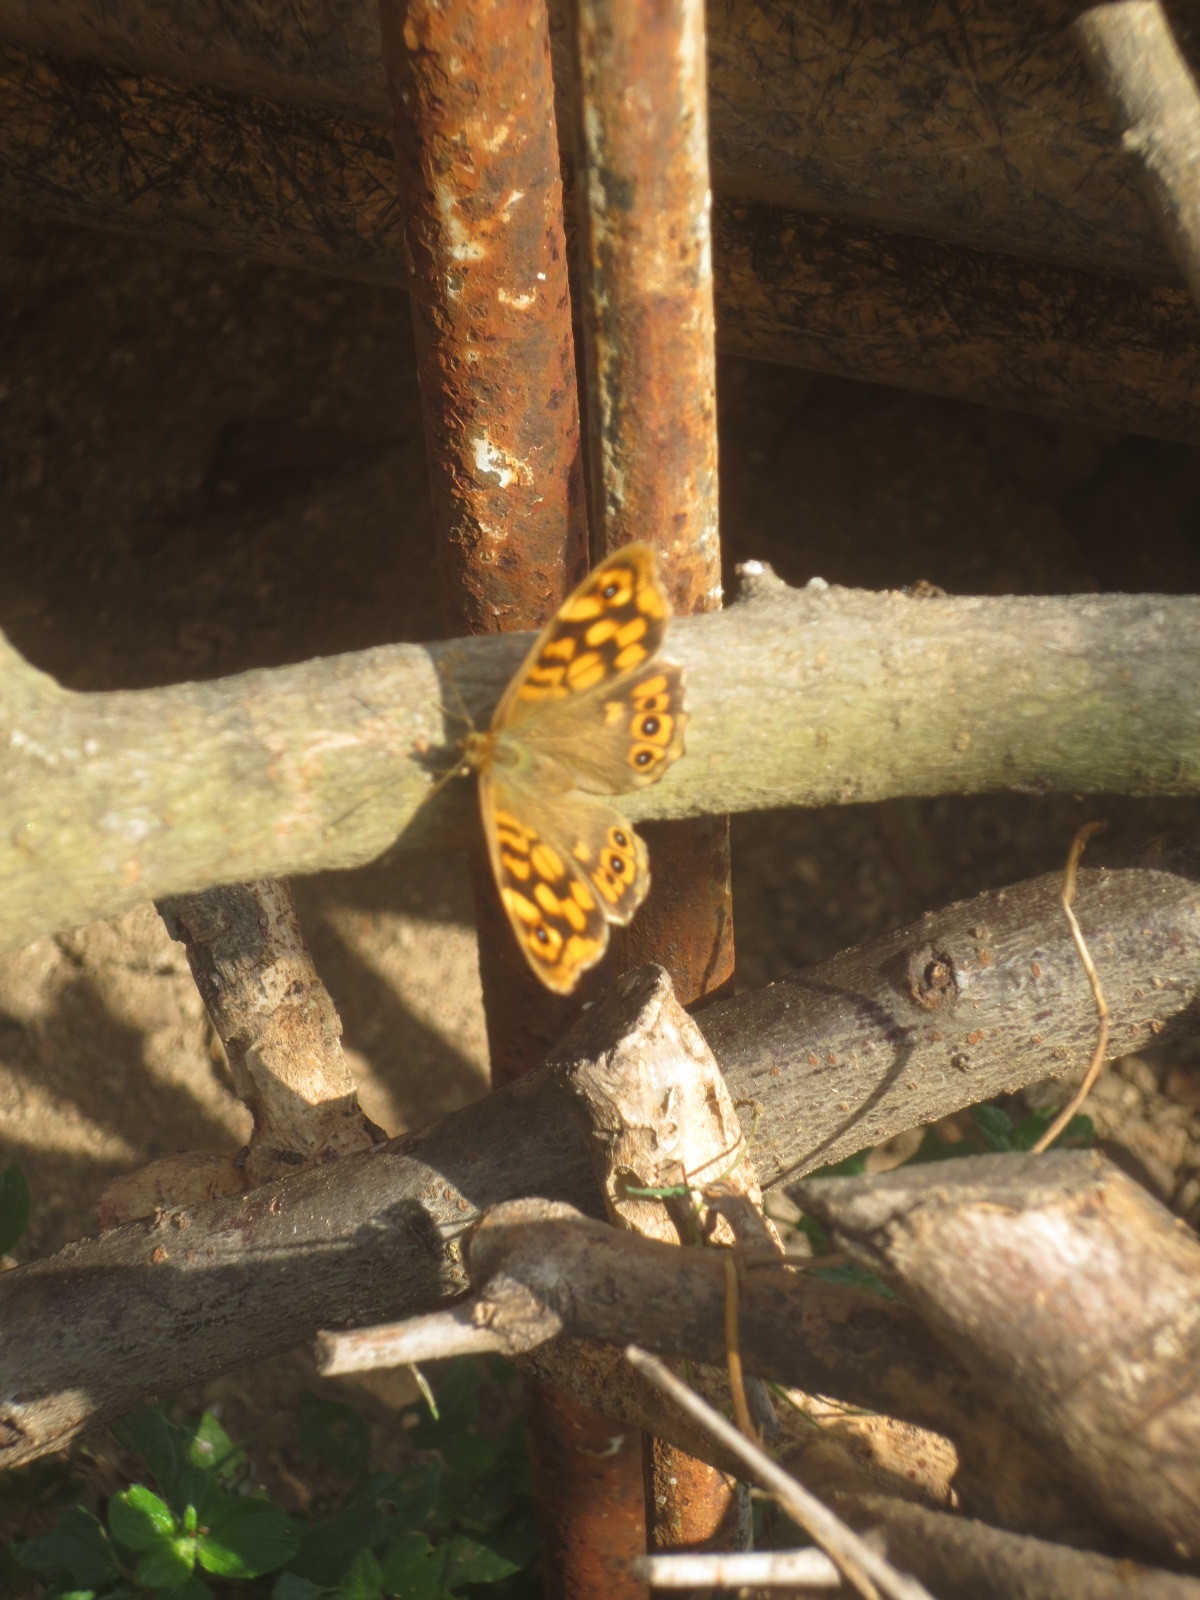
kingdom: Animalia
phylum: Arthropoda
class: Insecta
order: Lepidoptera
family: Nymphalidae
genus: Pararge
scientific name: Pararge aegeria
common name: Speckled wood
